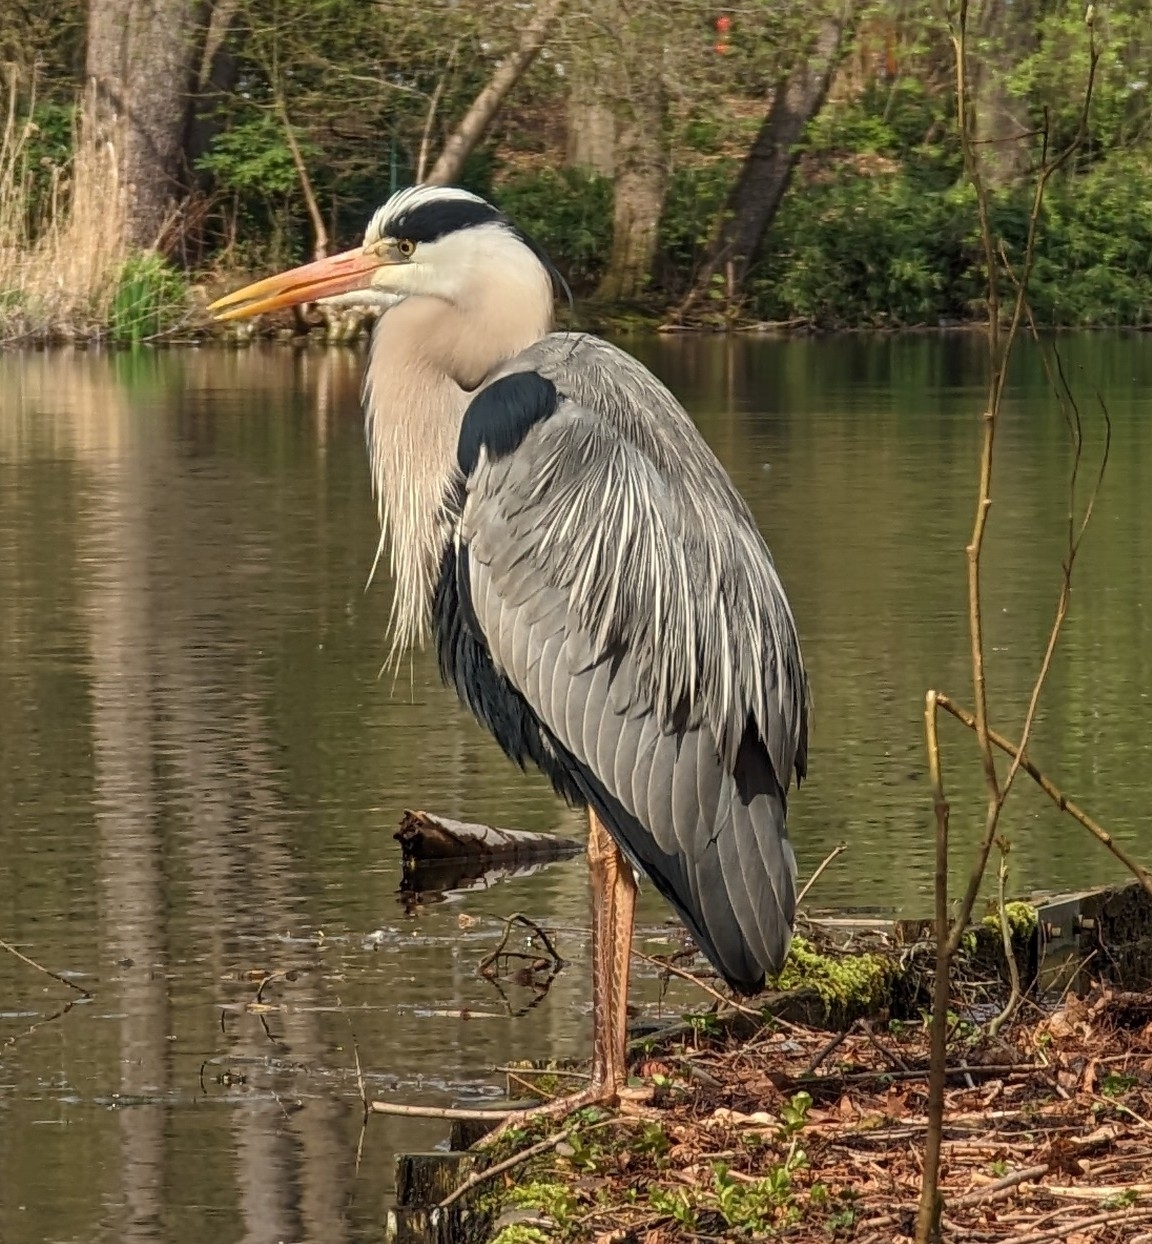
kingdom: Animalia
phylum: Chordata
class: Aves
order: Pelecaniformes
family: Ardeidae
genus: Ardea
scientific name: Ardea cinerea
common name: Grey heron
